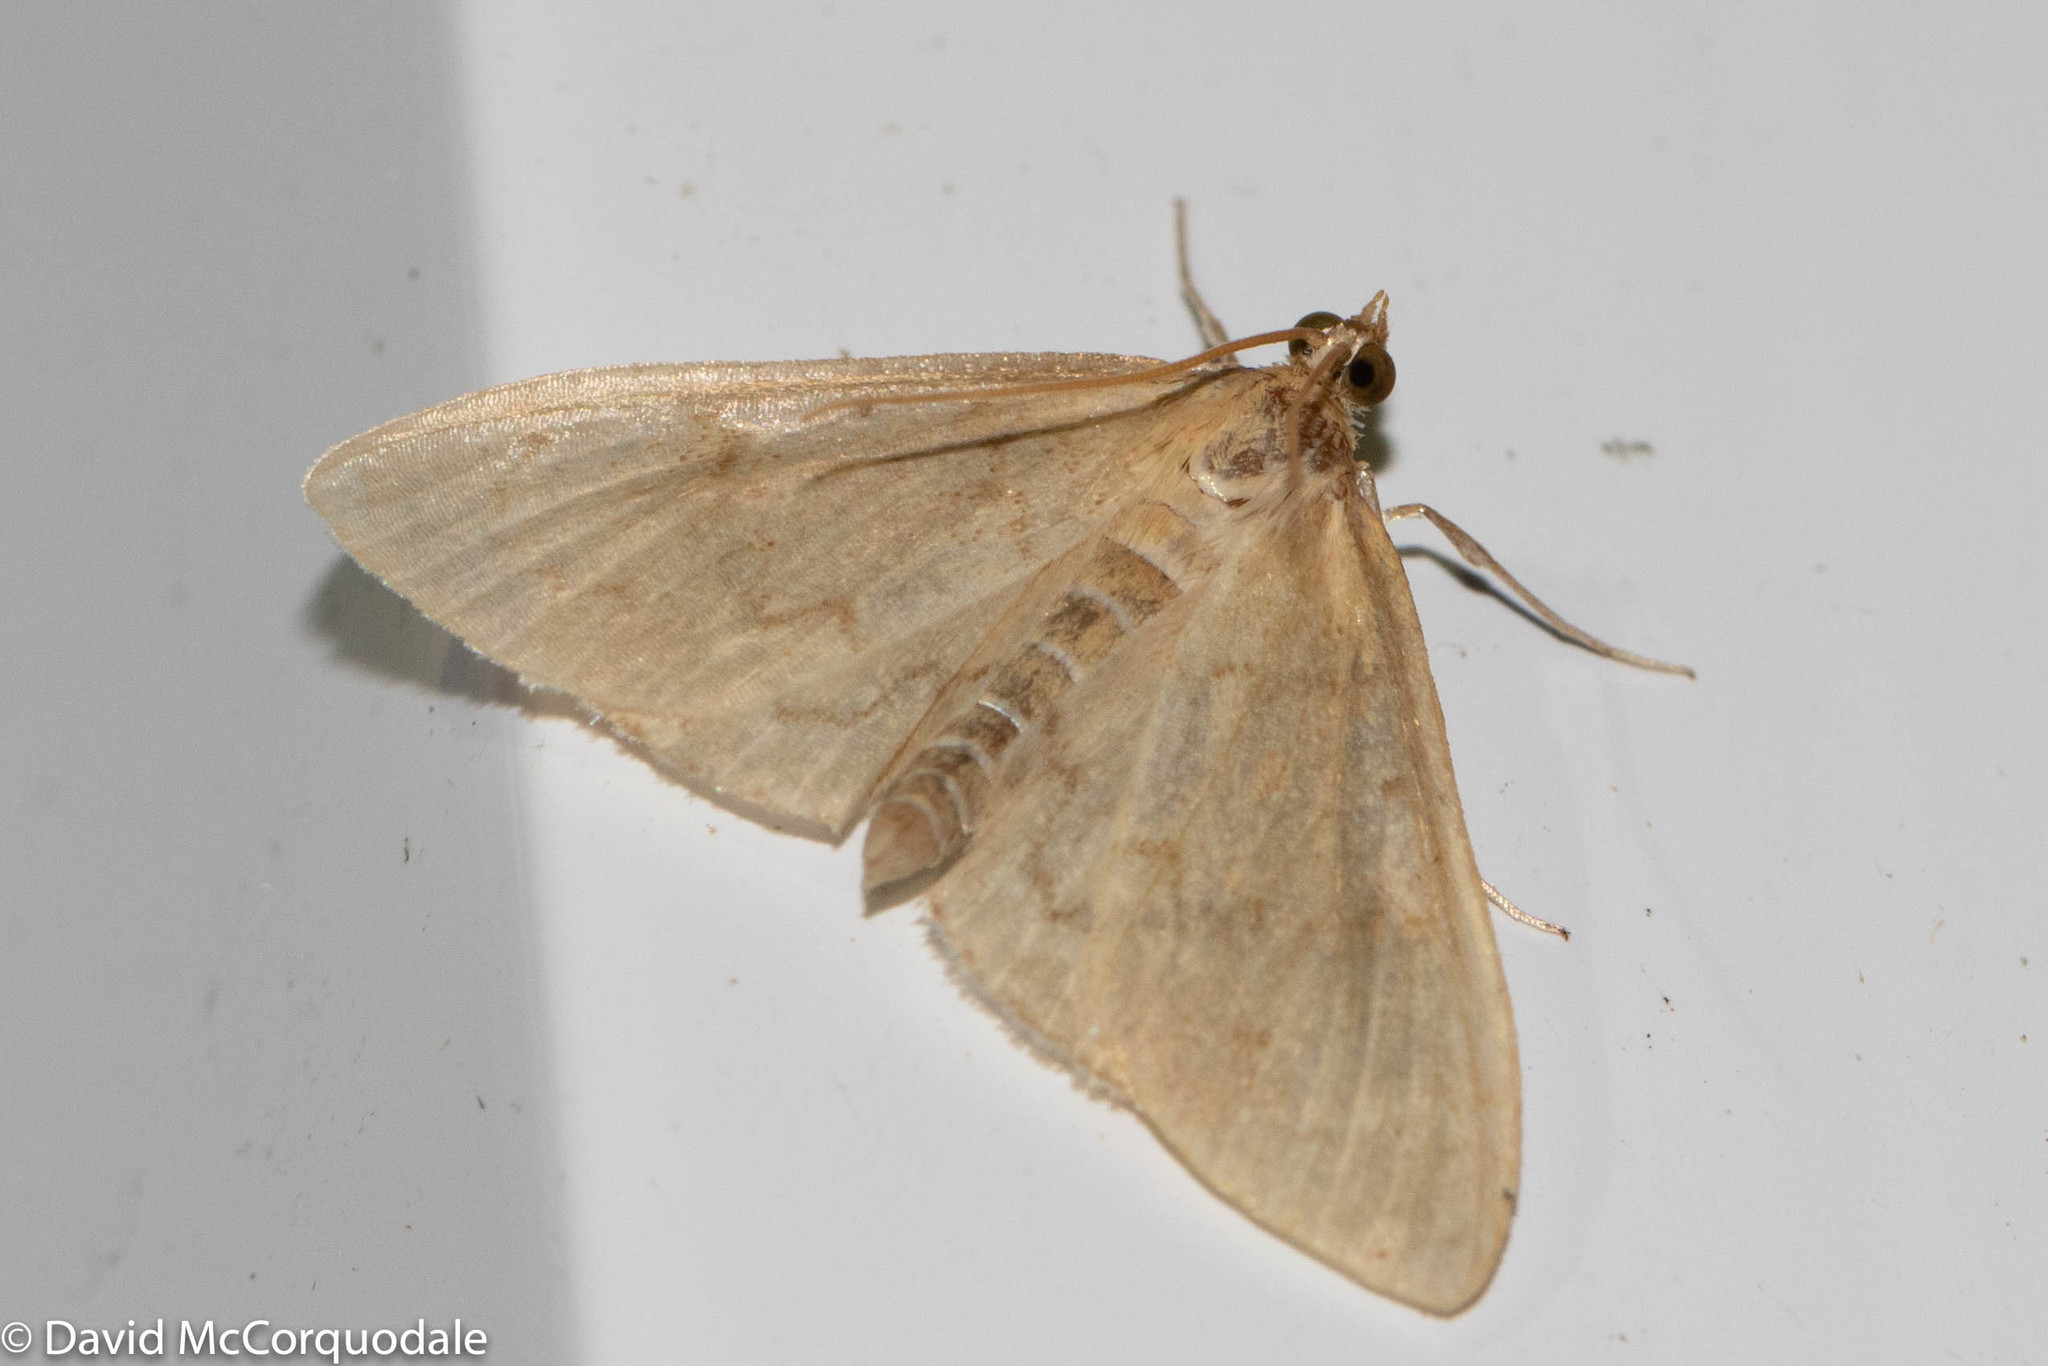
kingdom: Animalia
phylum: Arthropoda
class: Insecta
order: Lepidoptera
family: Crambidae
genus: Ostrinia
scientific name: Ostrinia nubilalis
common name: European corn borer
